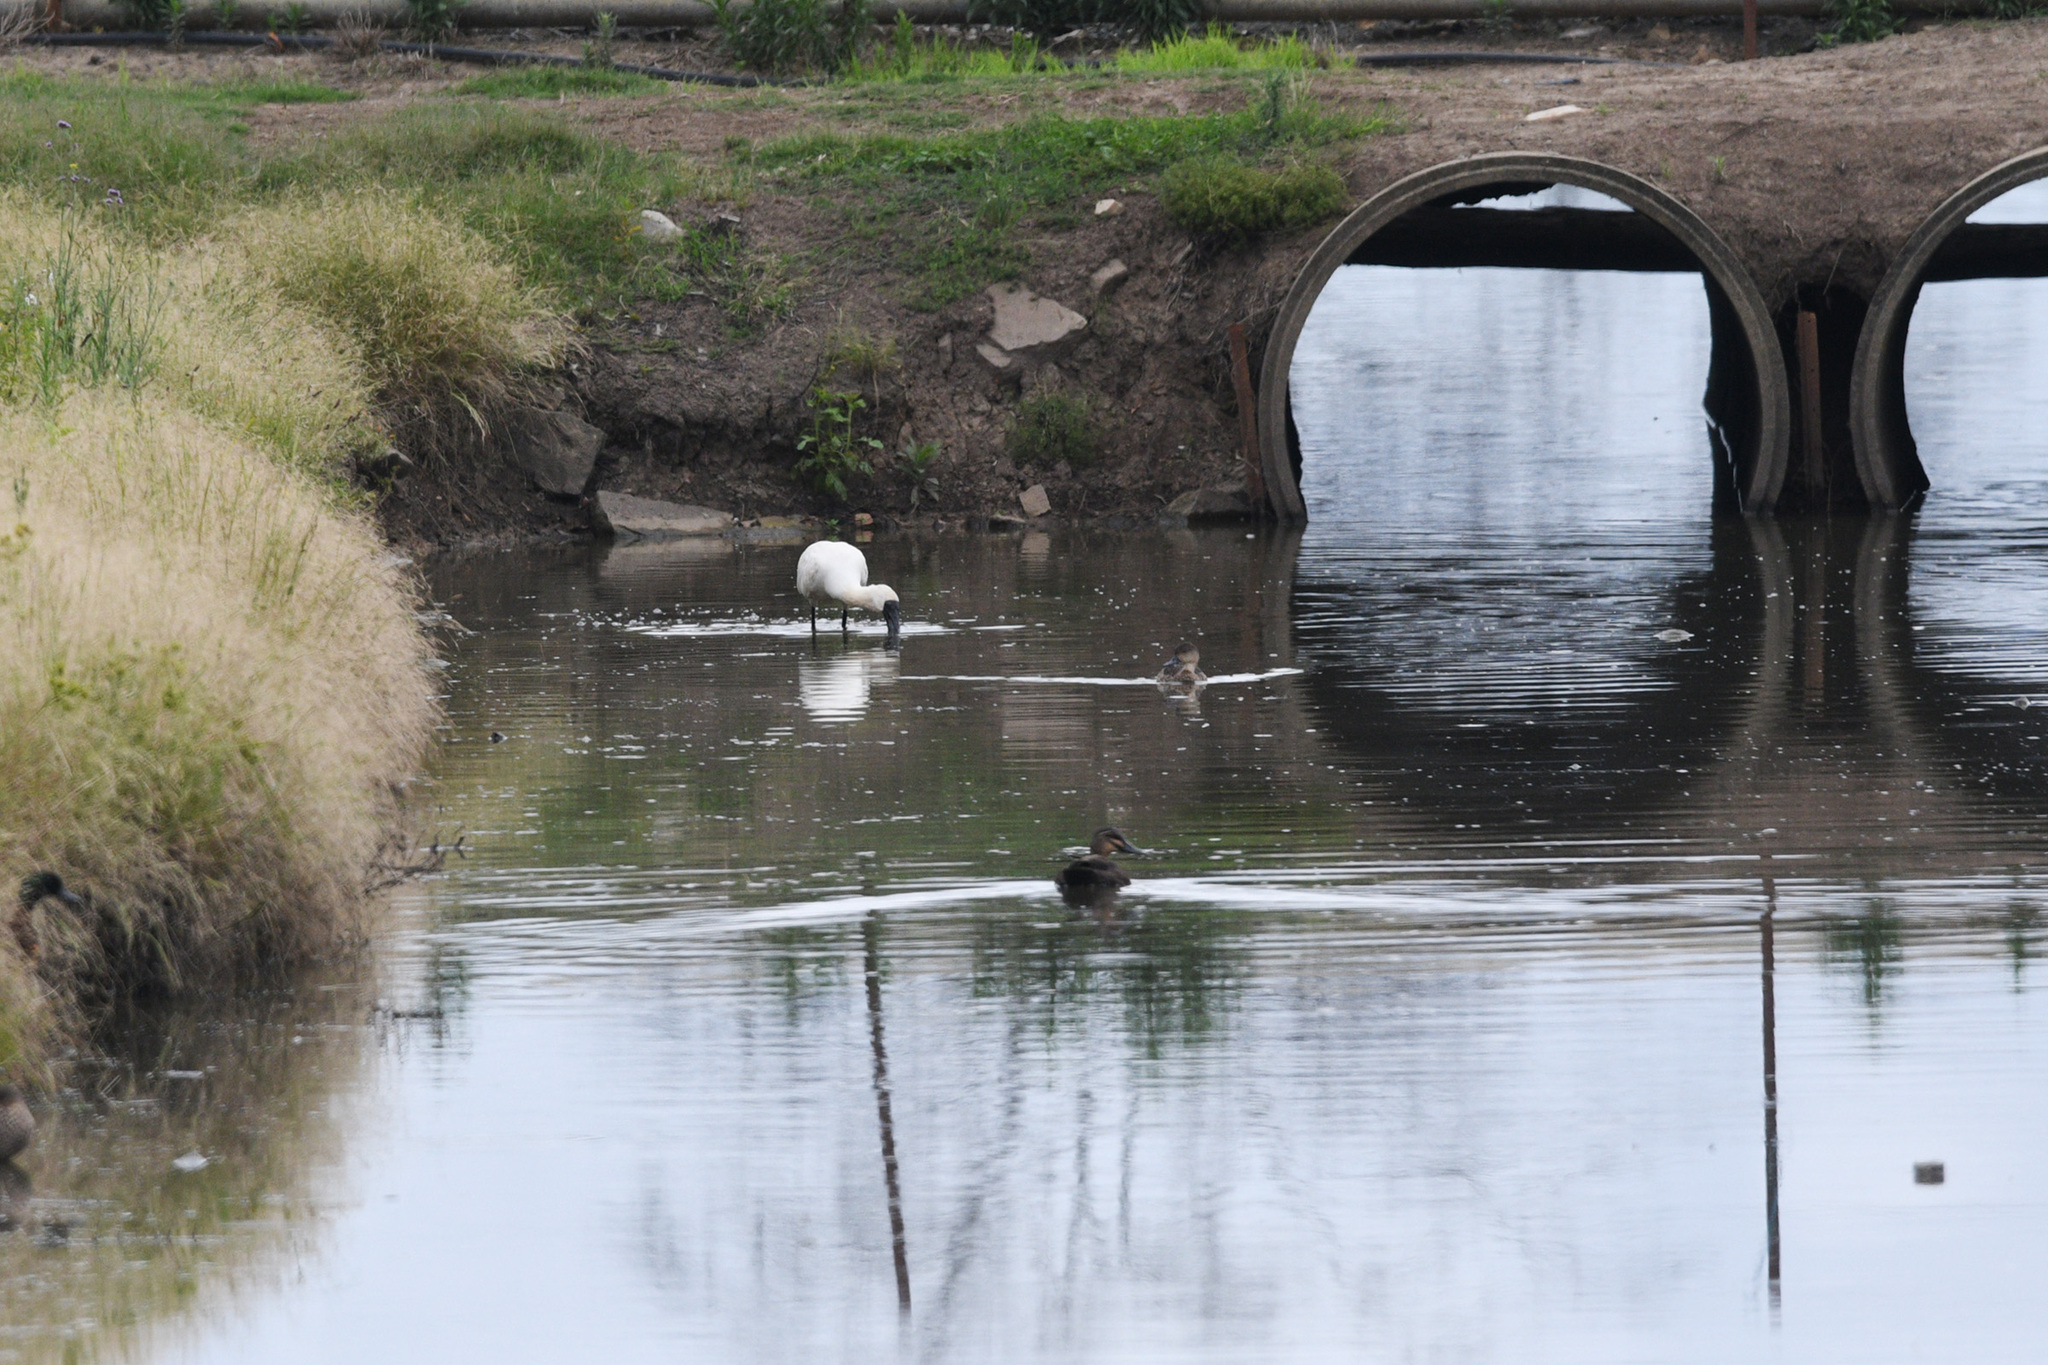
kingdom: Animalia
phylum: Chordata
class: Aves
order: Pelecaniformes
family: Threskiornithidae
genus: Platalea
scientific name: Platalea regia
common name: Royal spoonbill
